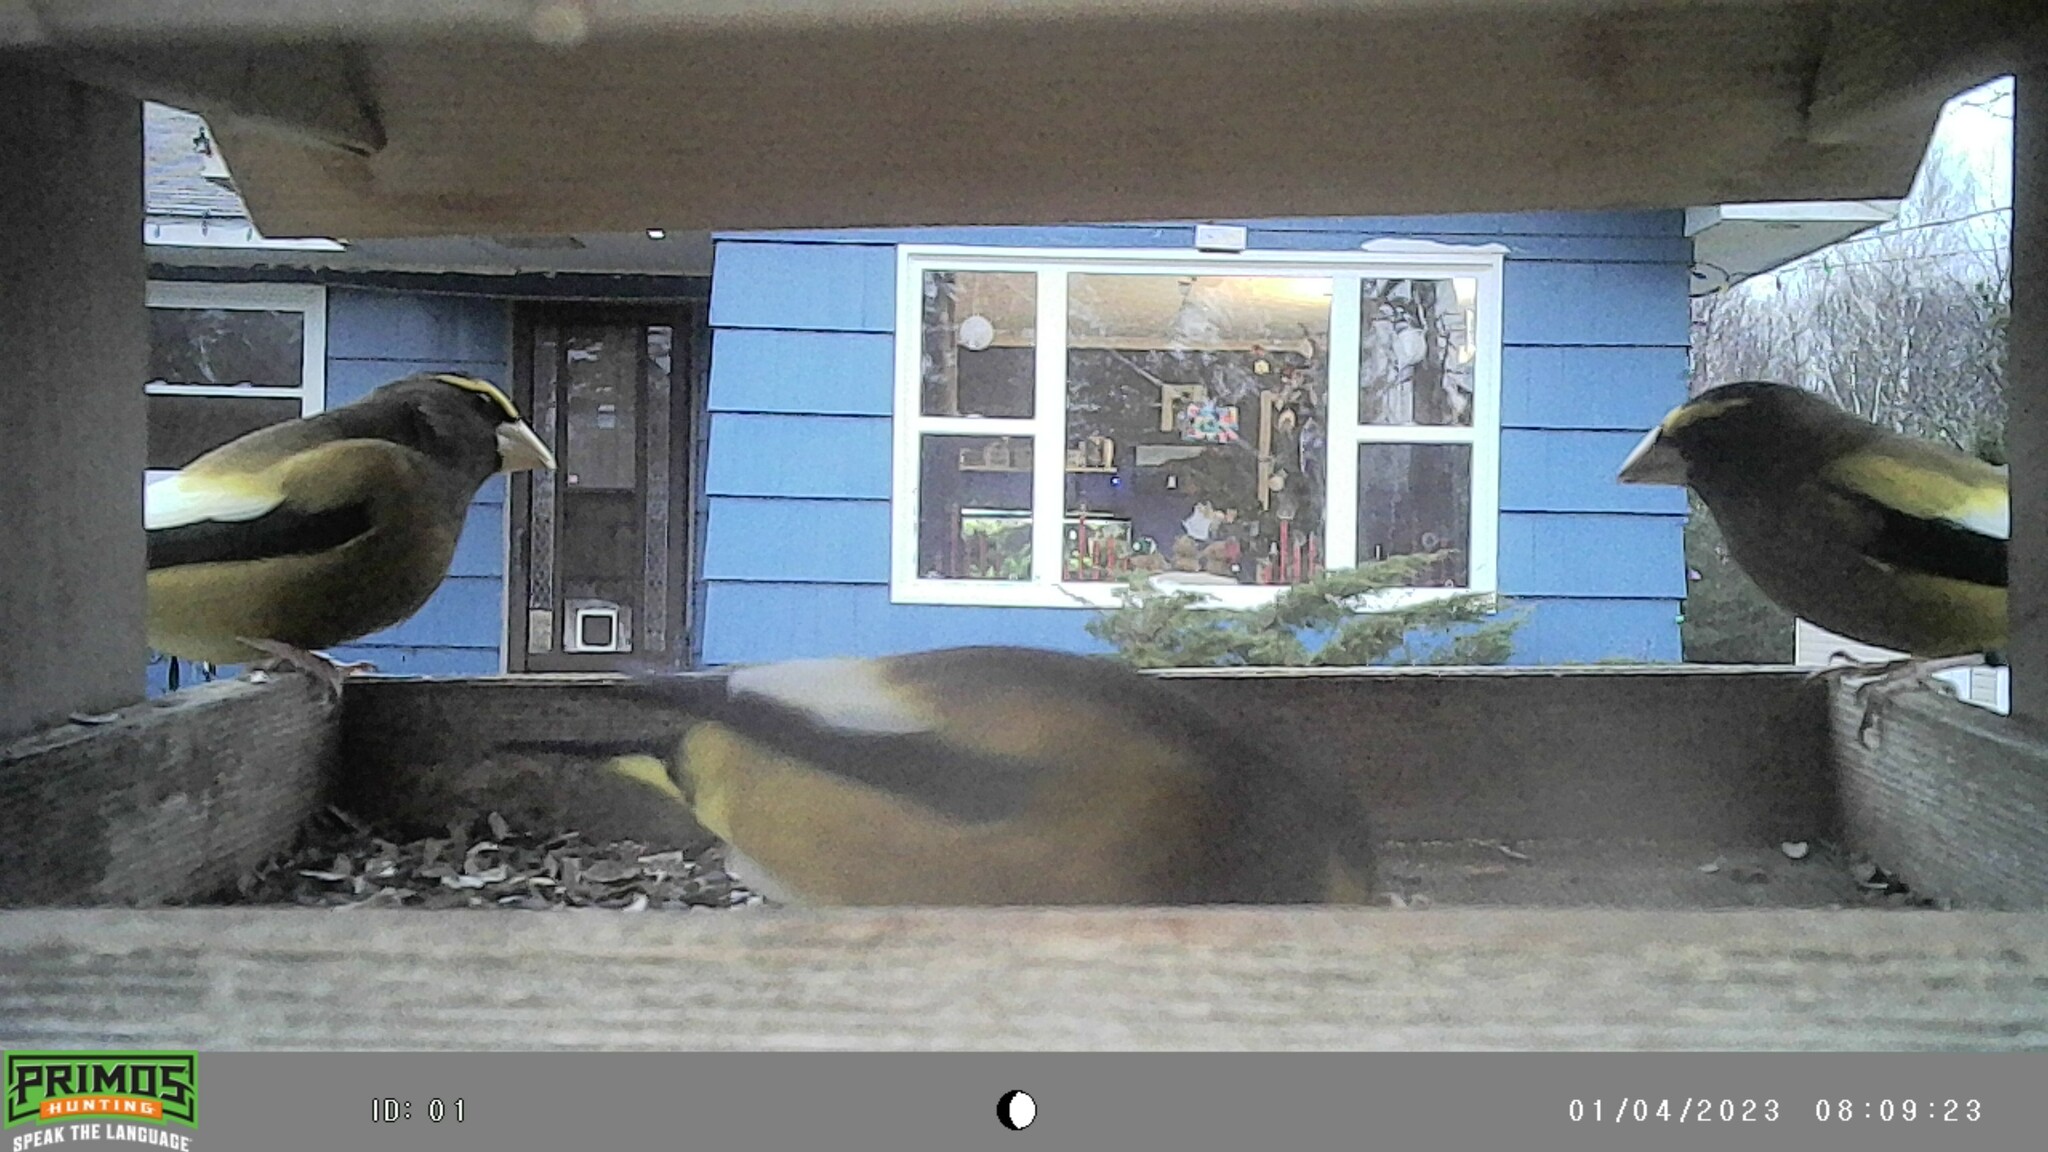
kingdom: Animalia
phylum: Chordata
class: Aves
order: Passeriformes
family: Fringillidae
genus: Hesperiphona
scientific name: Hesperiphona vespertina
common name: Evening grosbeak
